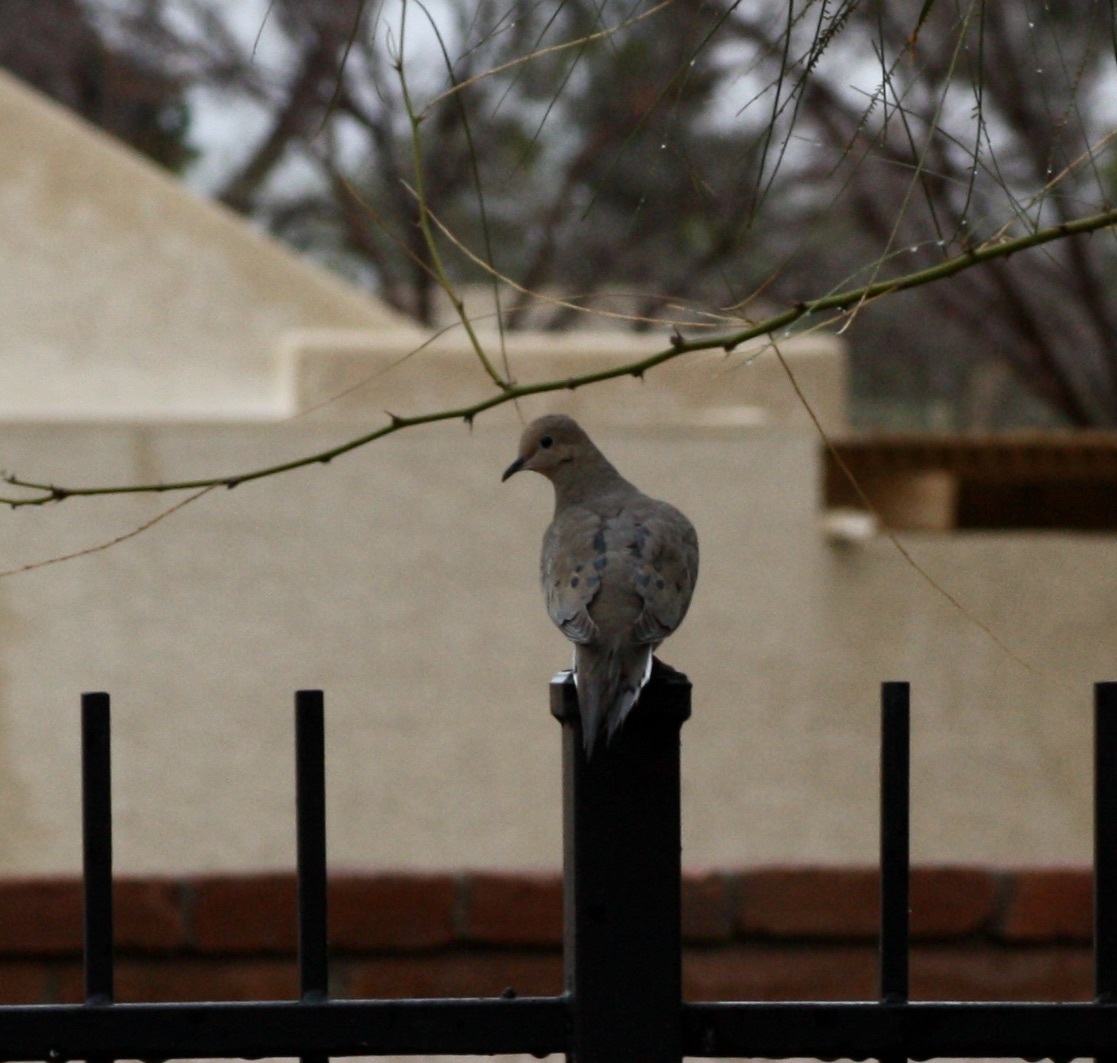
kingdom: Animalia
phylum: Chordata
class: Aves
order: Columbiformes
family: Columbidae
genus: Zenaida
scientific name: Zenaida macroura
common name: Mourning dove
